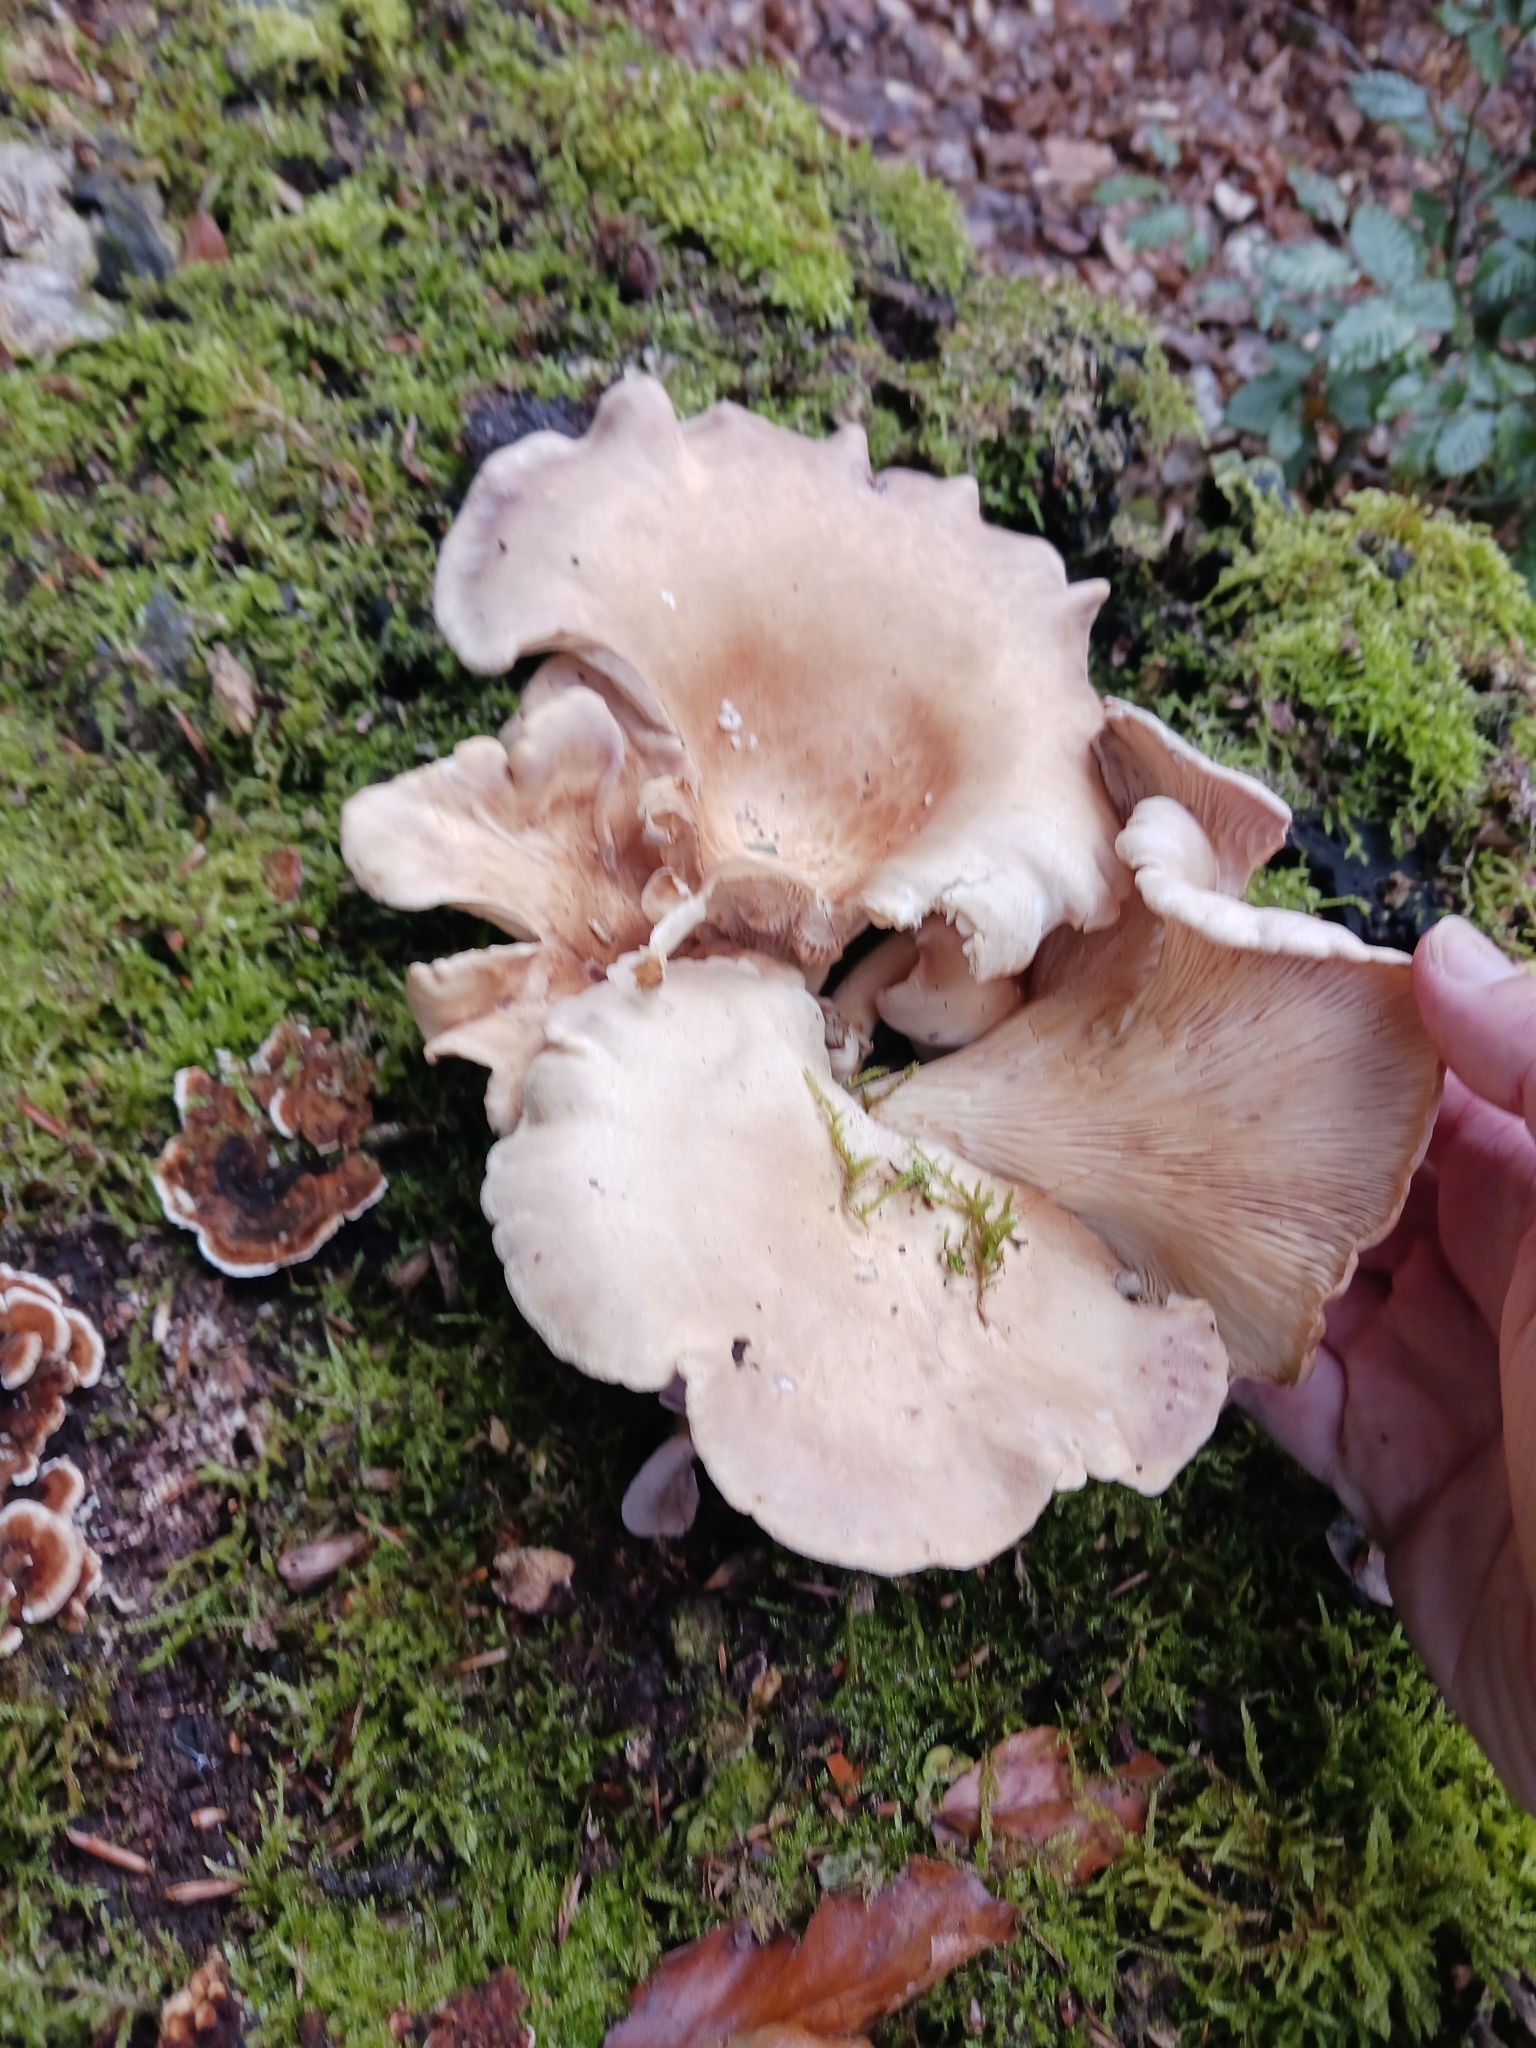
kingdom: Fungi
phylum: Basidiomycota
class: Agaricomycetes
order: Polyporales
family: Panaceae
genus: Panus
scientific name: Panus conchatus
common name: Lilac oysterling
